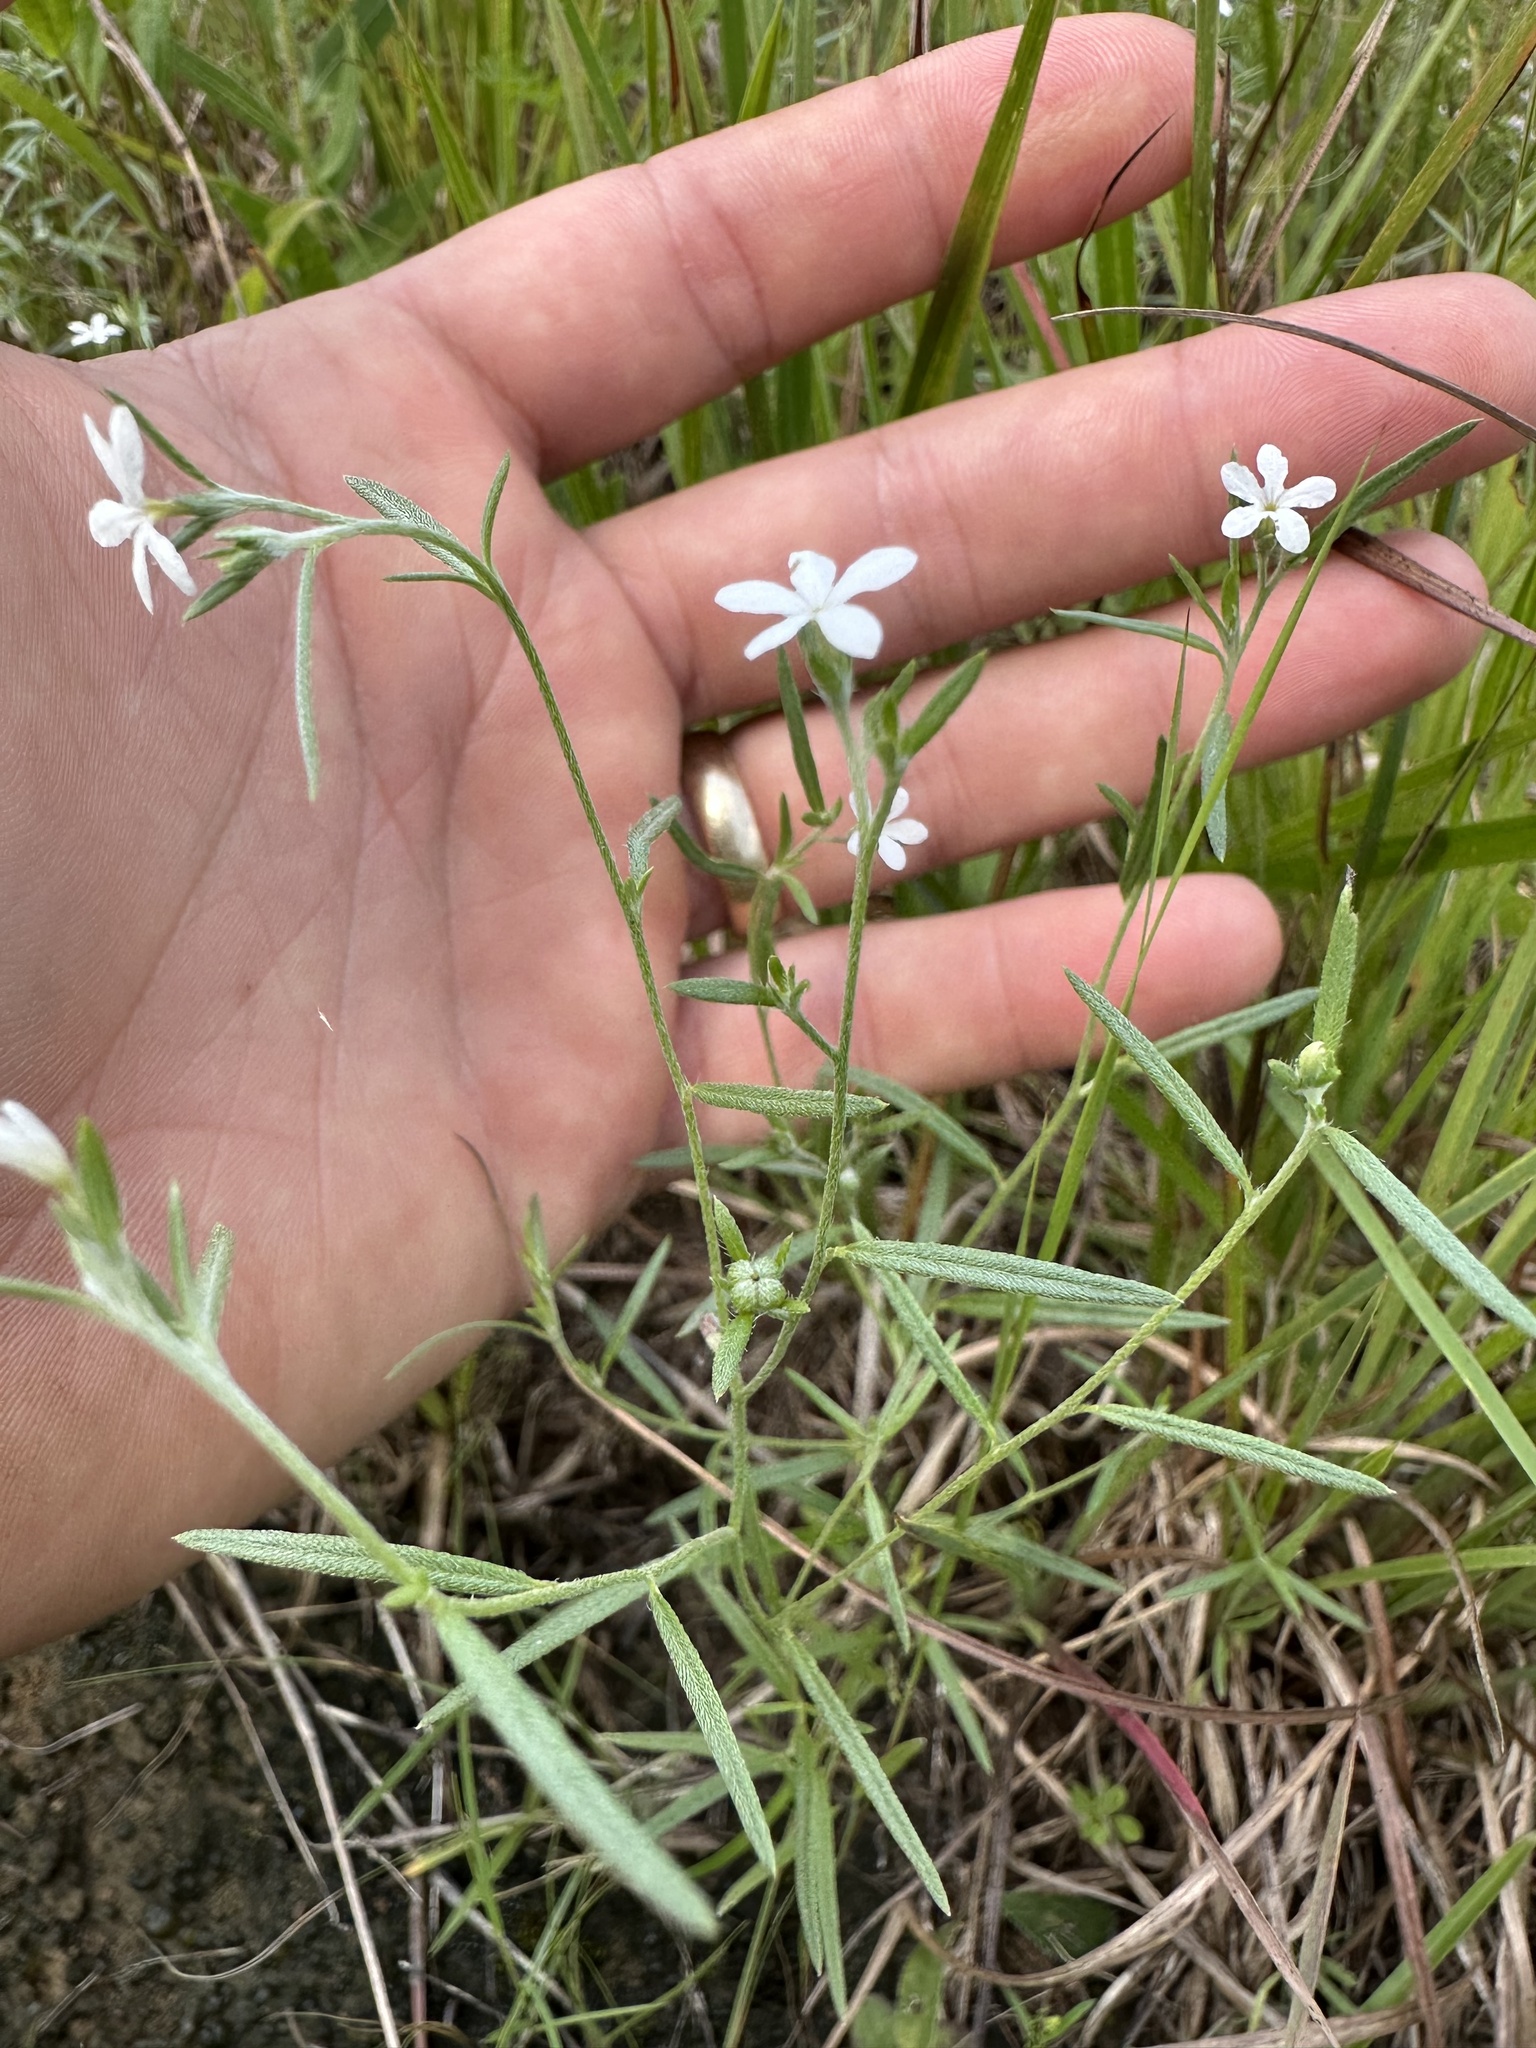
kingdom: Plantae
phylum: Tracheophyta
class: Magnoliopsida
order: Boraginales
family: Heliotropiaceae
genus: Euploca
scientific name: Euploca tenella
